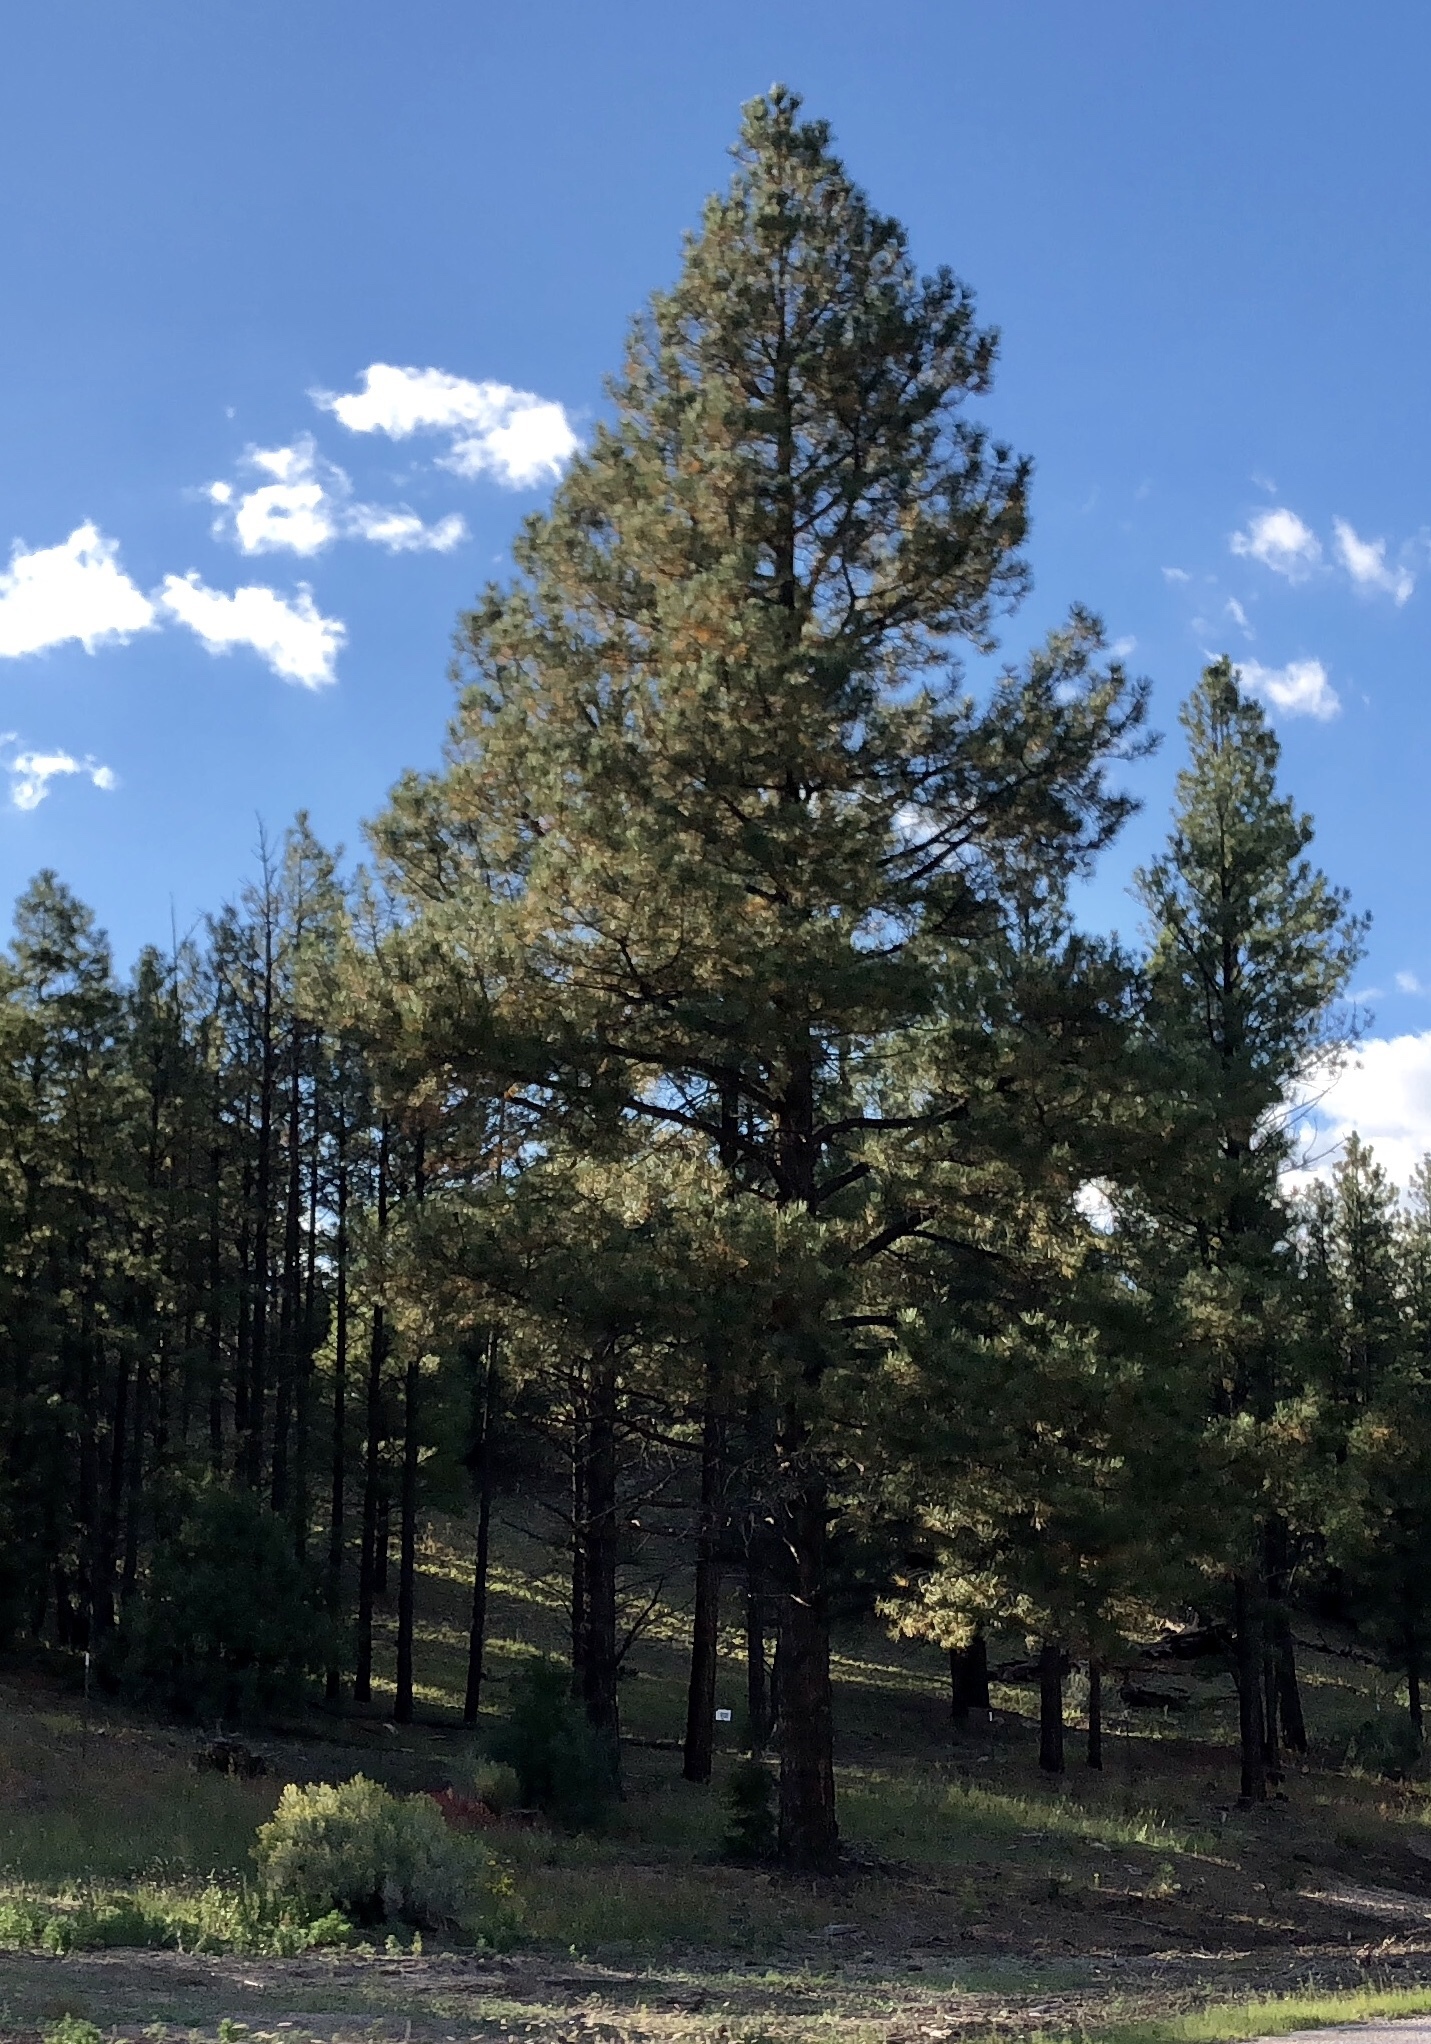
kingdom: Plantae
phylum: Tracheophyta
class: Pinopsida
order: Pinales
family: Pinaceae
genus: Pinus
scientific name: Pinus ponderosa
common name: Western yellow-pine
